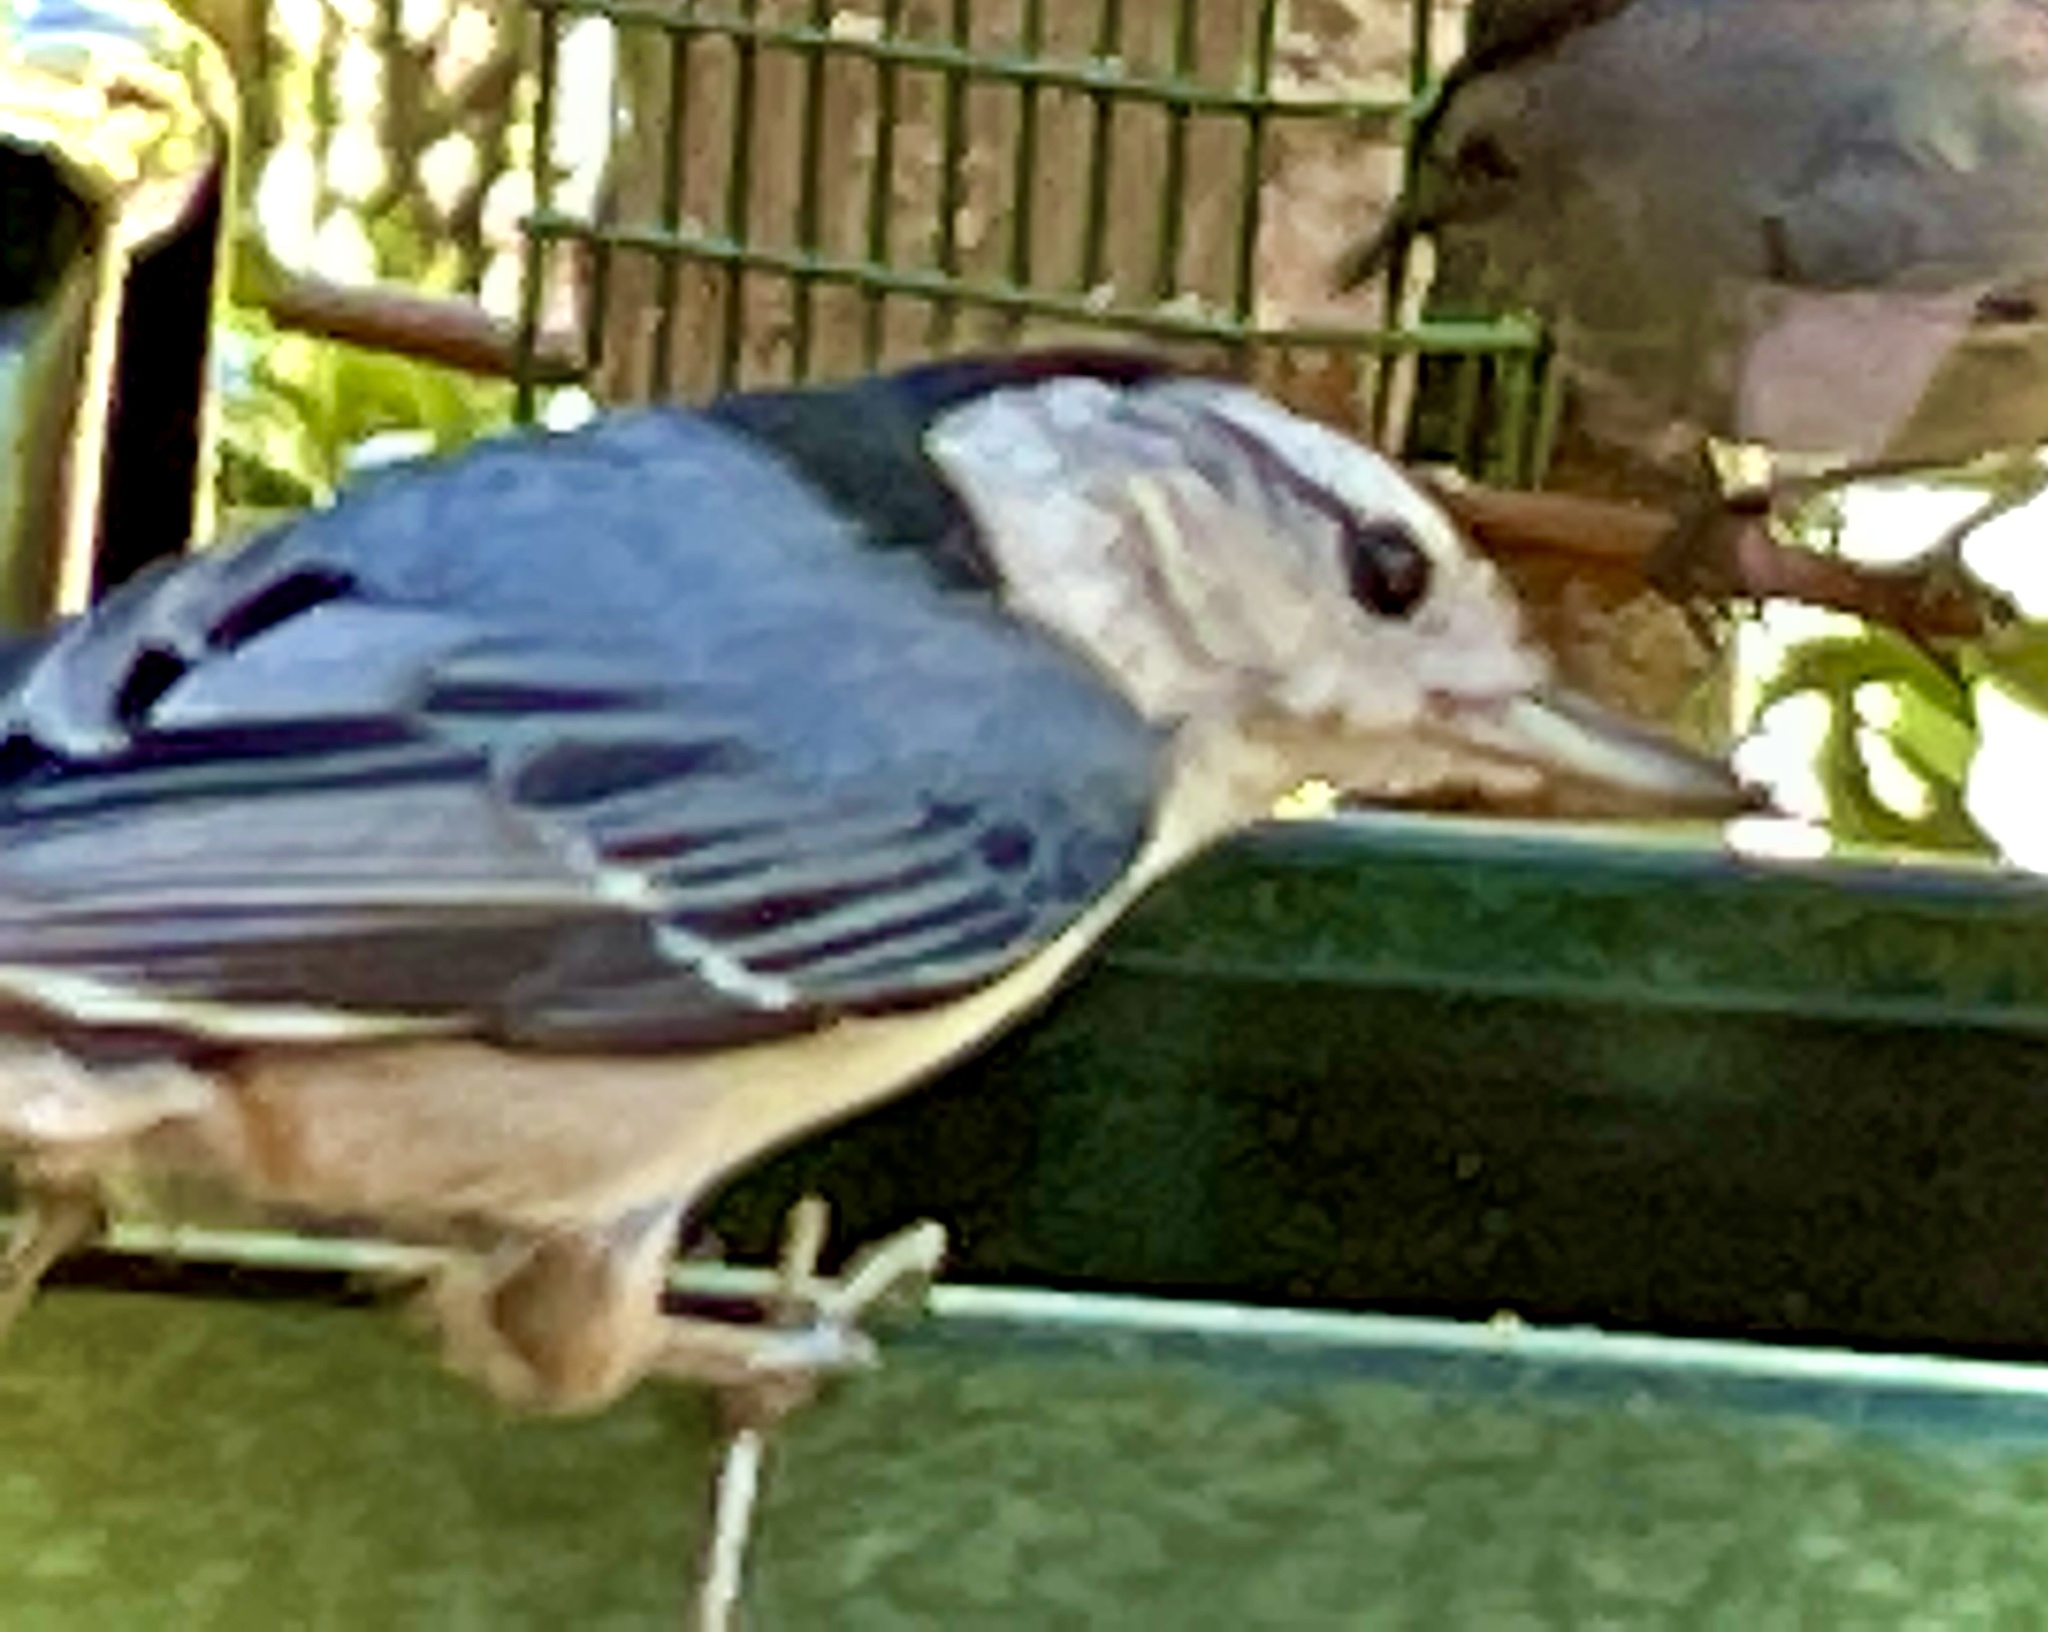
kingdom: Animalia
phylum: Chordata
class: Aves
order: Passeriformes
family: Sittidae
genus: Sitta
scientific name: Sitta carolinensis
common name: White-breasted nuthatch
